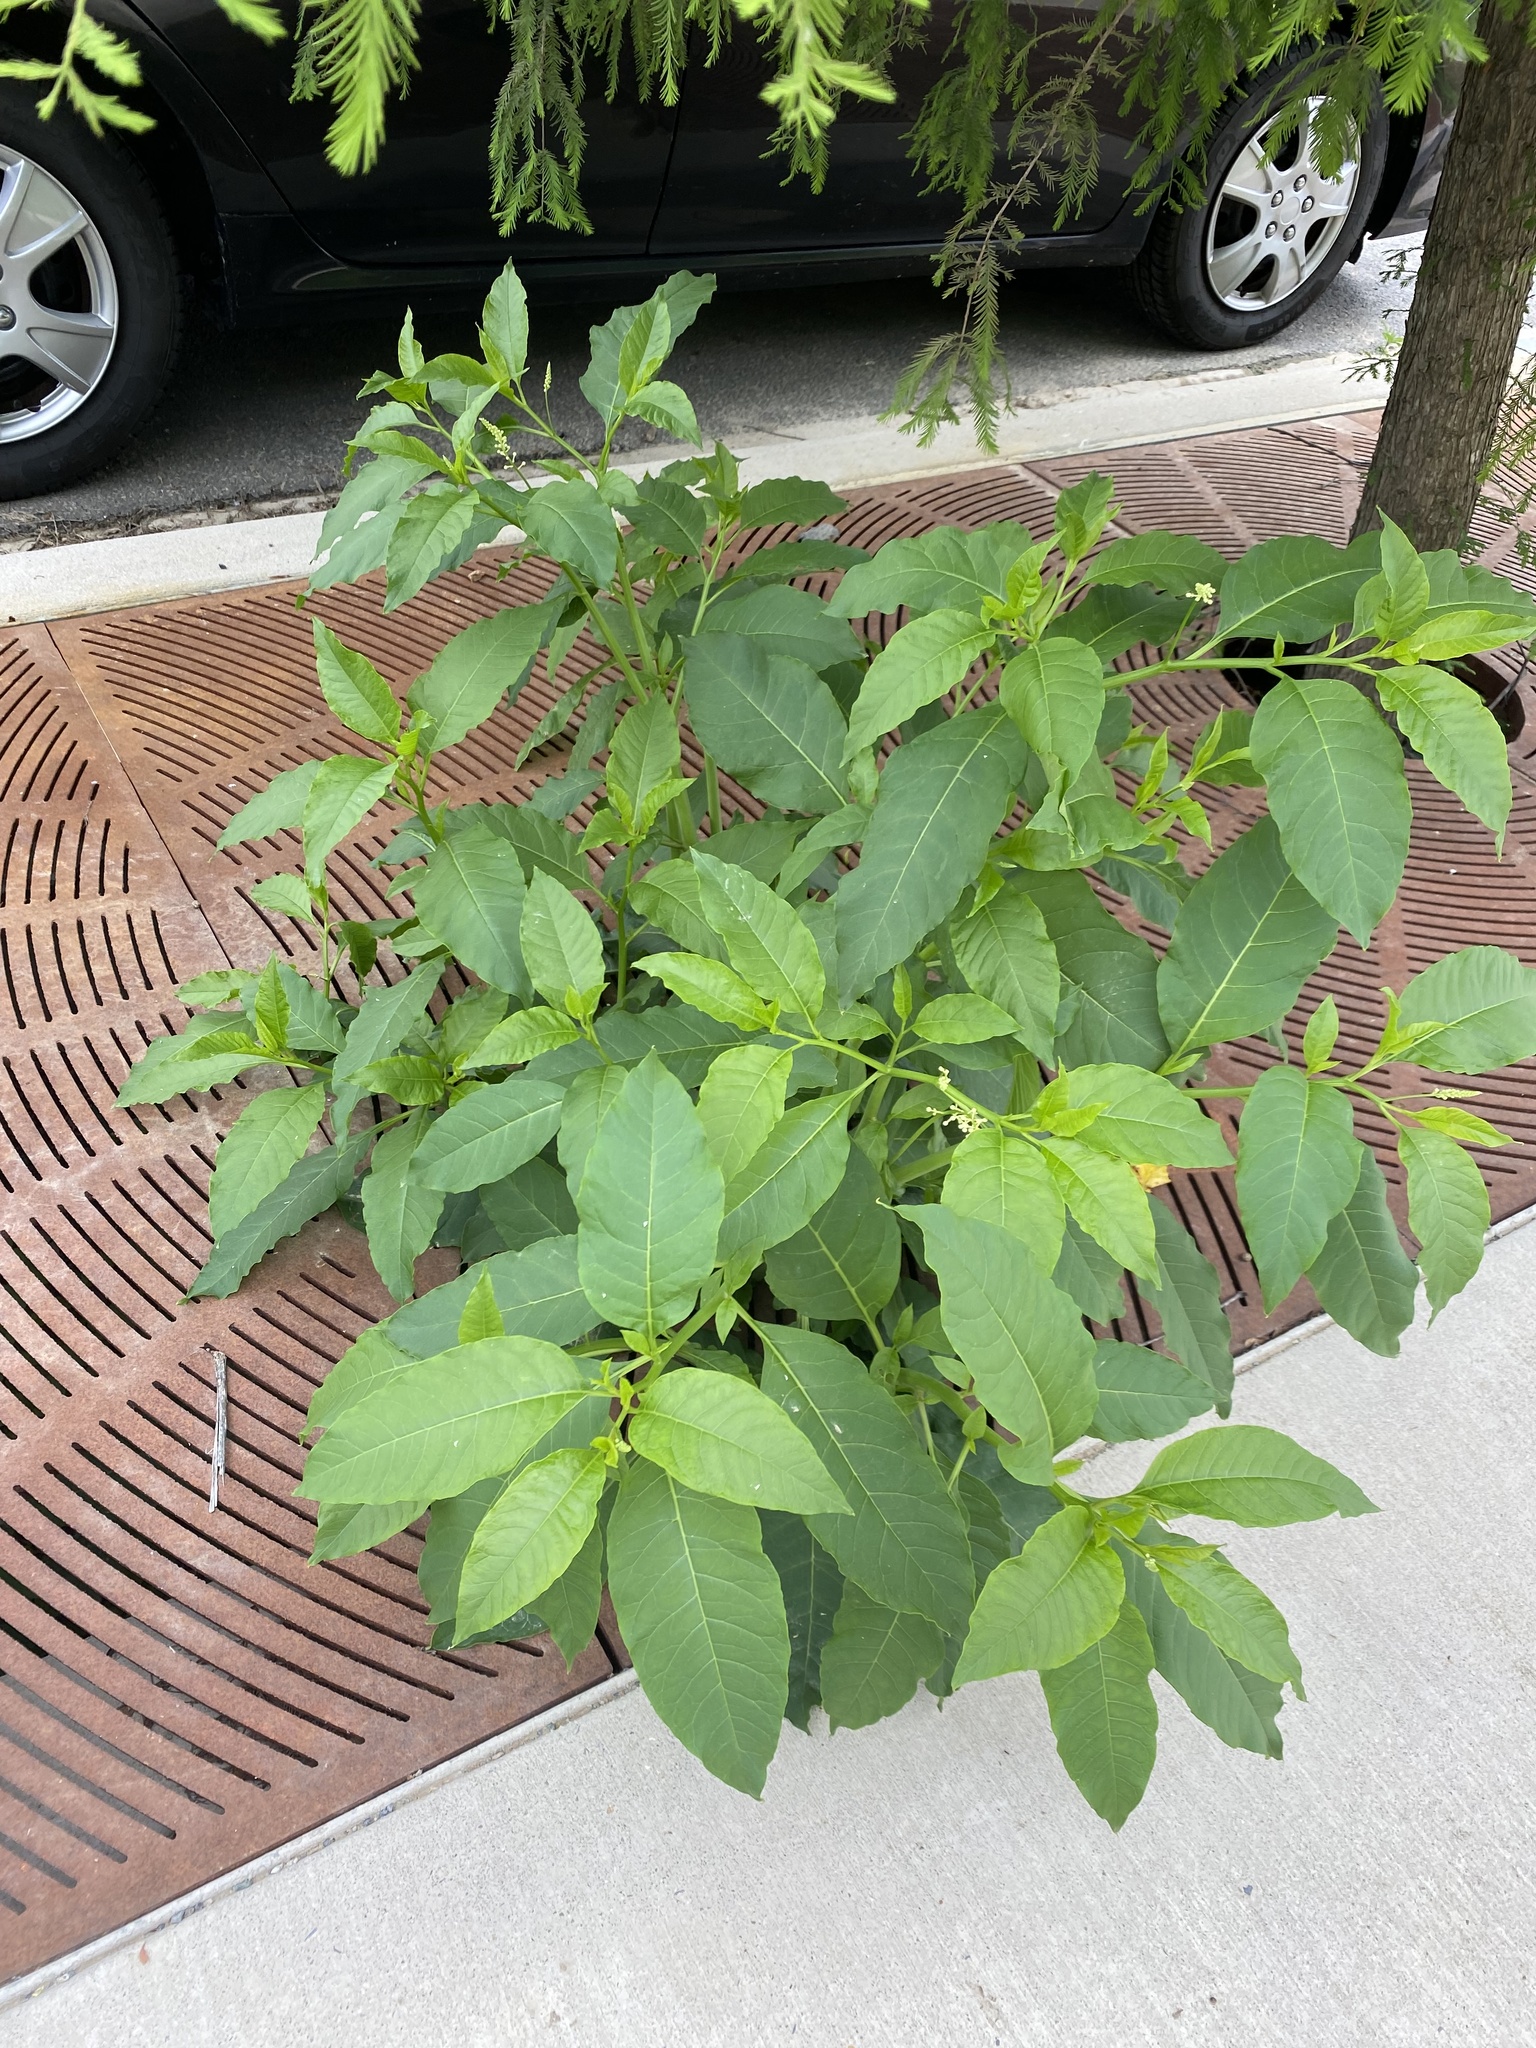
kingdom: Plantae
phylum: Tracheophyta
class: Magnoliopsida
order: Caryophyllales
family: Phytolaccaceae
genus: Phytolacca
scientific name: Phytolacca americana
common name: American pokeweed
